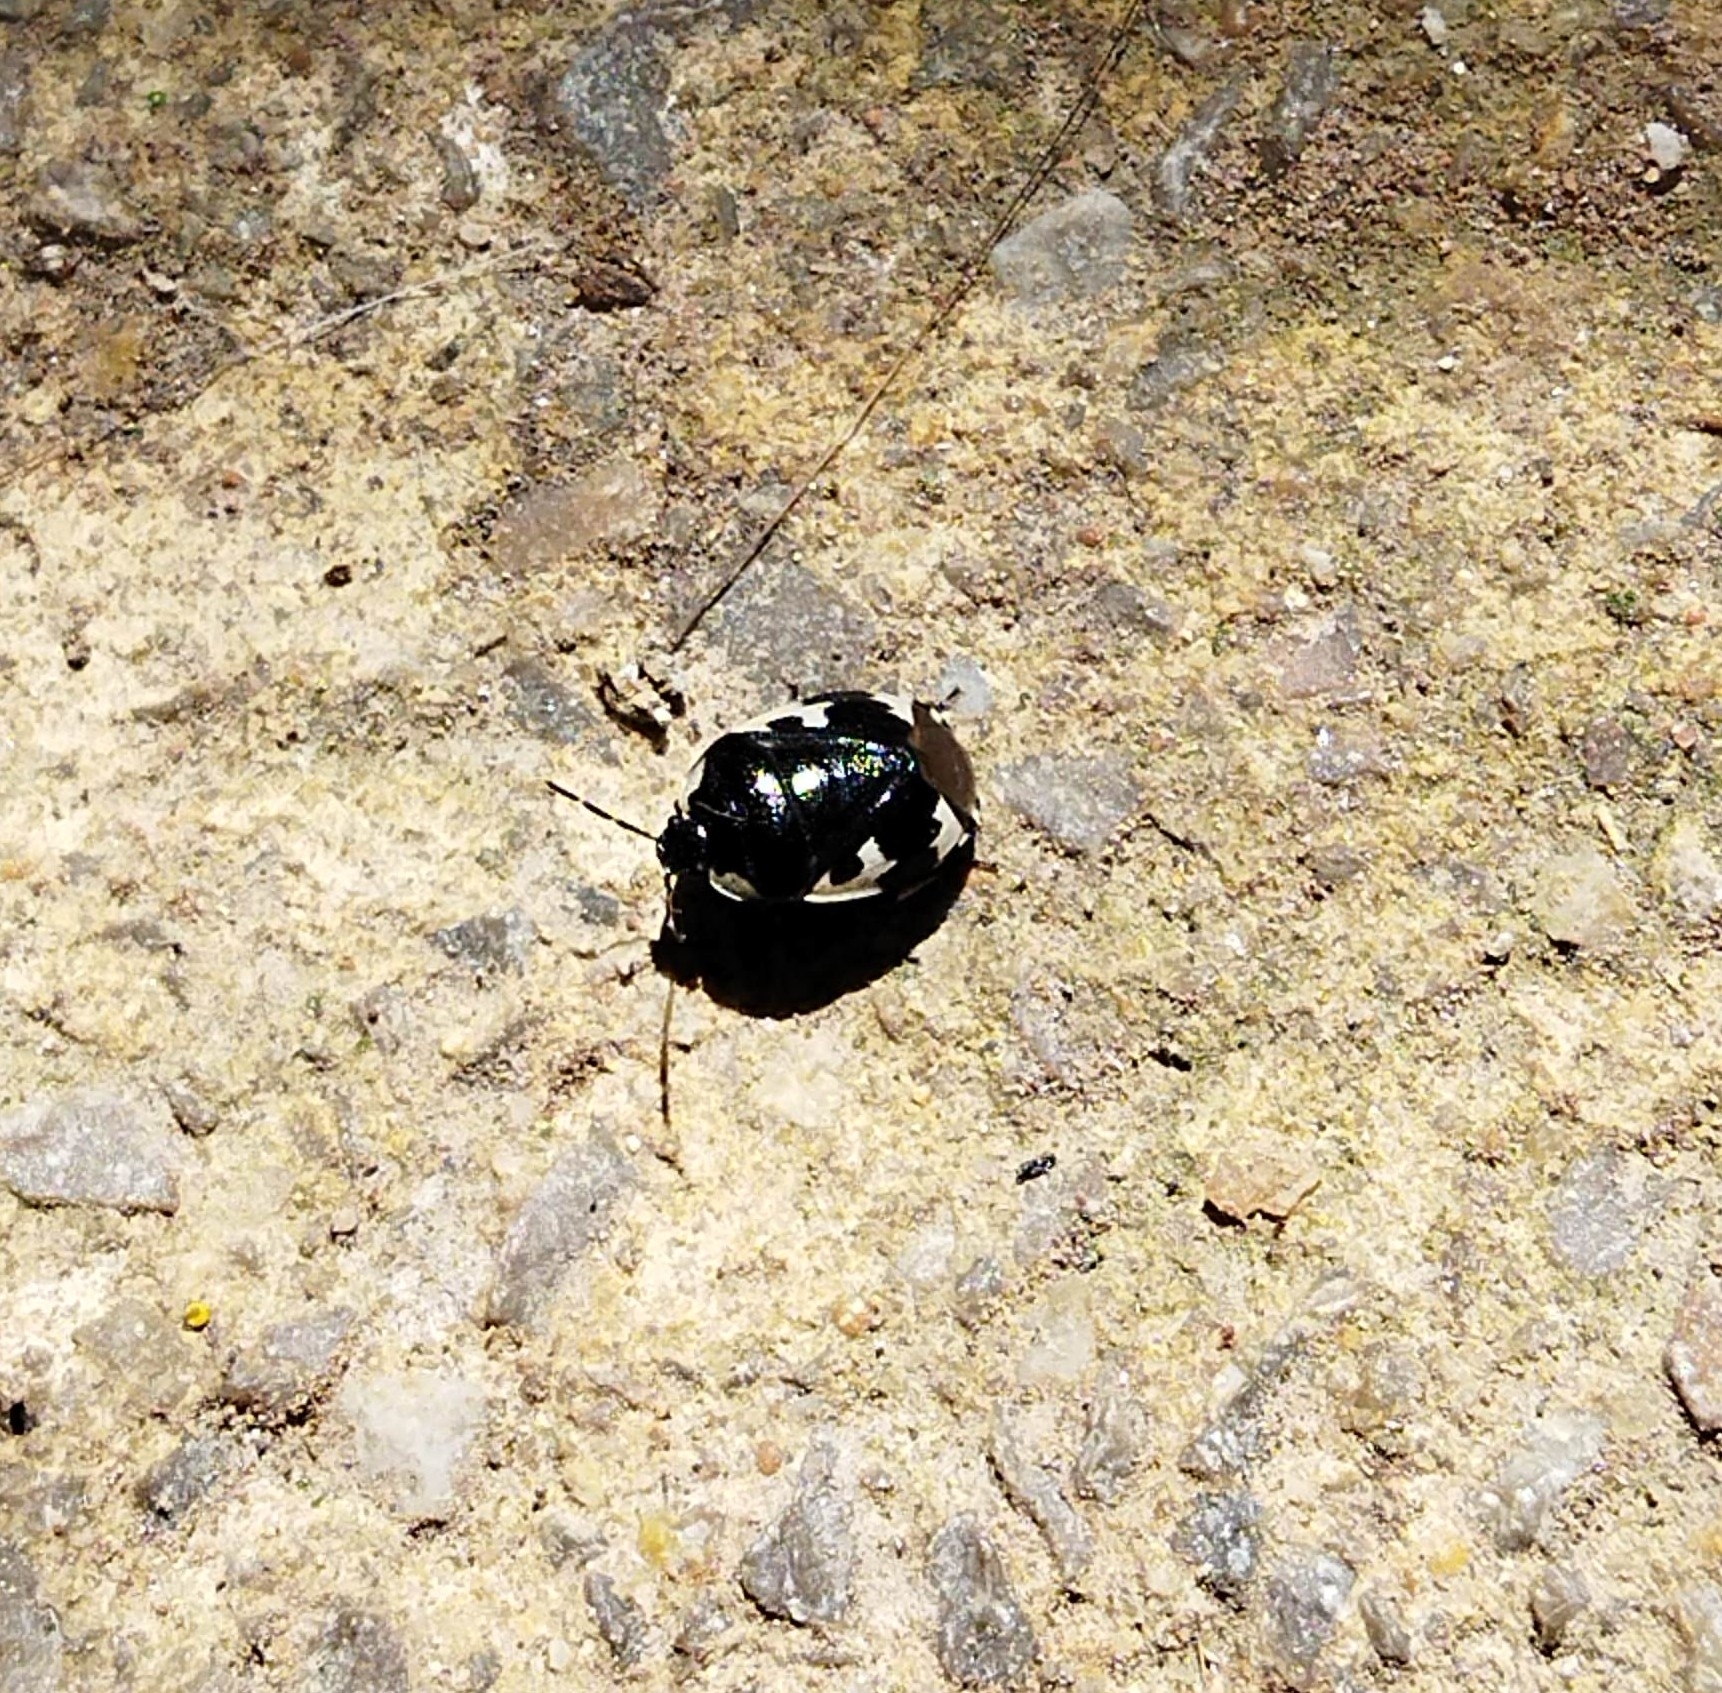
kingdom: Animalia
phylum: Arthropoda
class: Insecta
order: Hemiptera
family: Cydnidae
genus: Tritomegas
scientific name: Tritomegas bicolor
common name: Pied shieldbug
